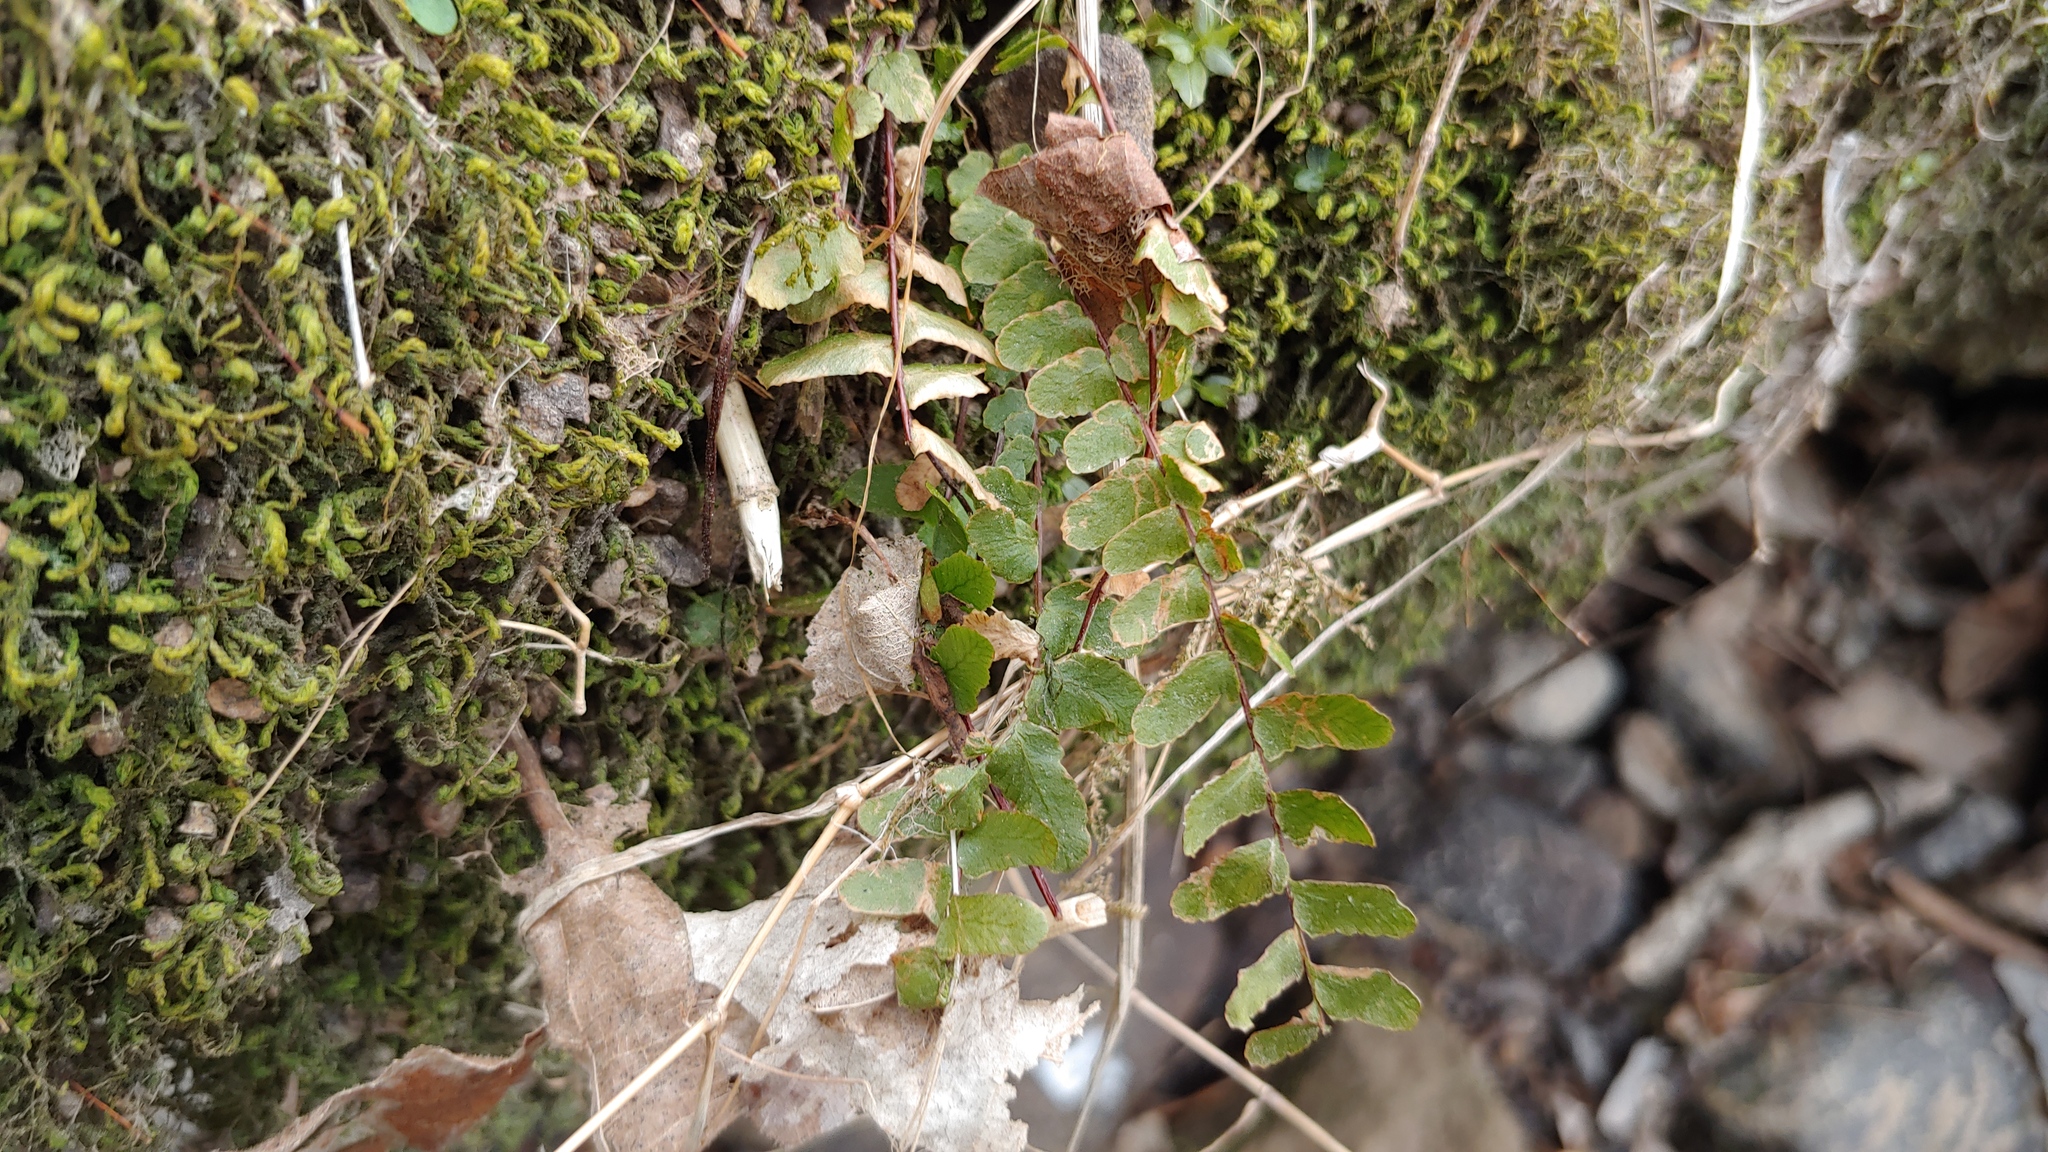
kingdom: Plantae
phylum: Tracheophyta
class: Polypodiopsida
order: Polypodiales
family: Aspleniaceae
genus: Asplenium
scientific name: Asplenium platyneuron
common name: Ebony spleenwort
